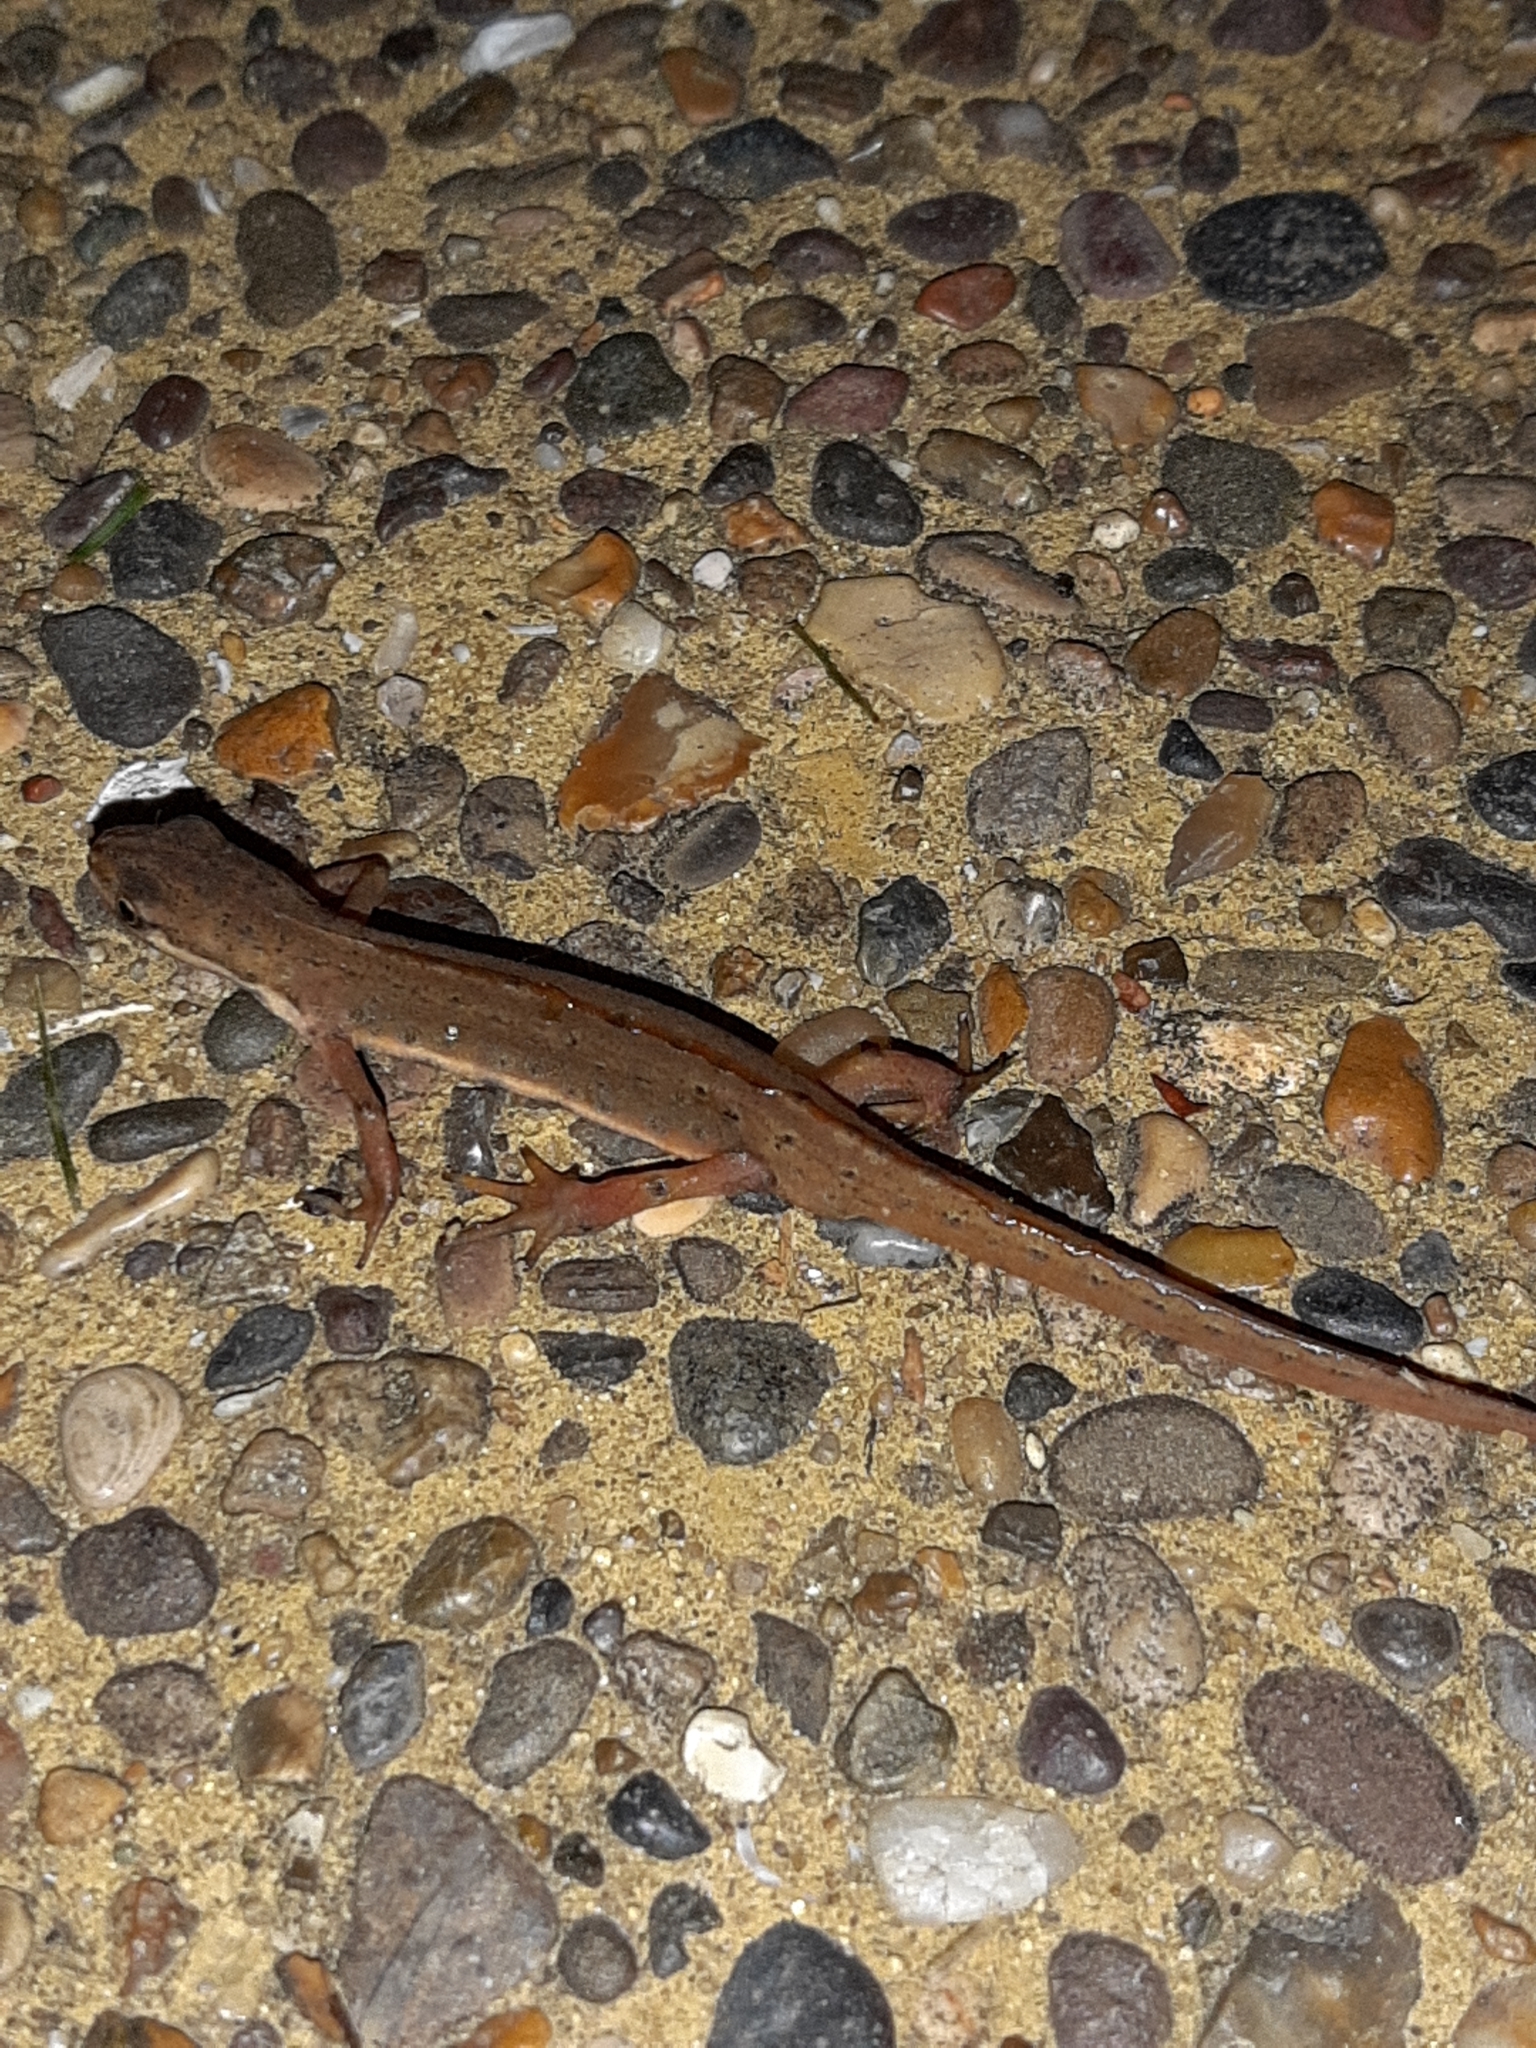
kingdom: Animalia
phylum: Chordata
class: Amphibia
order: Caudata
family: Salamandridae
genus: Lissotriton
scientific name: Lissotriton vulgaris
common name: Smooth newt
